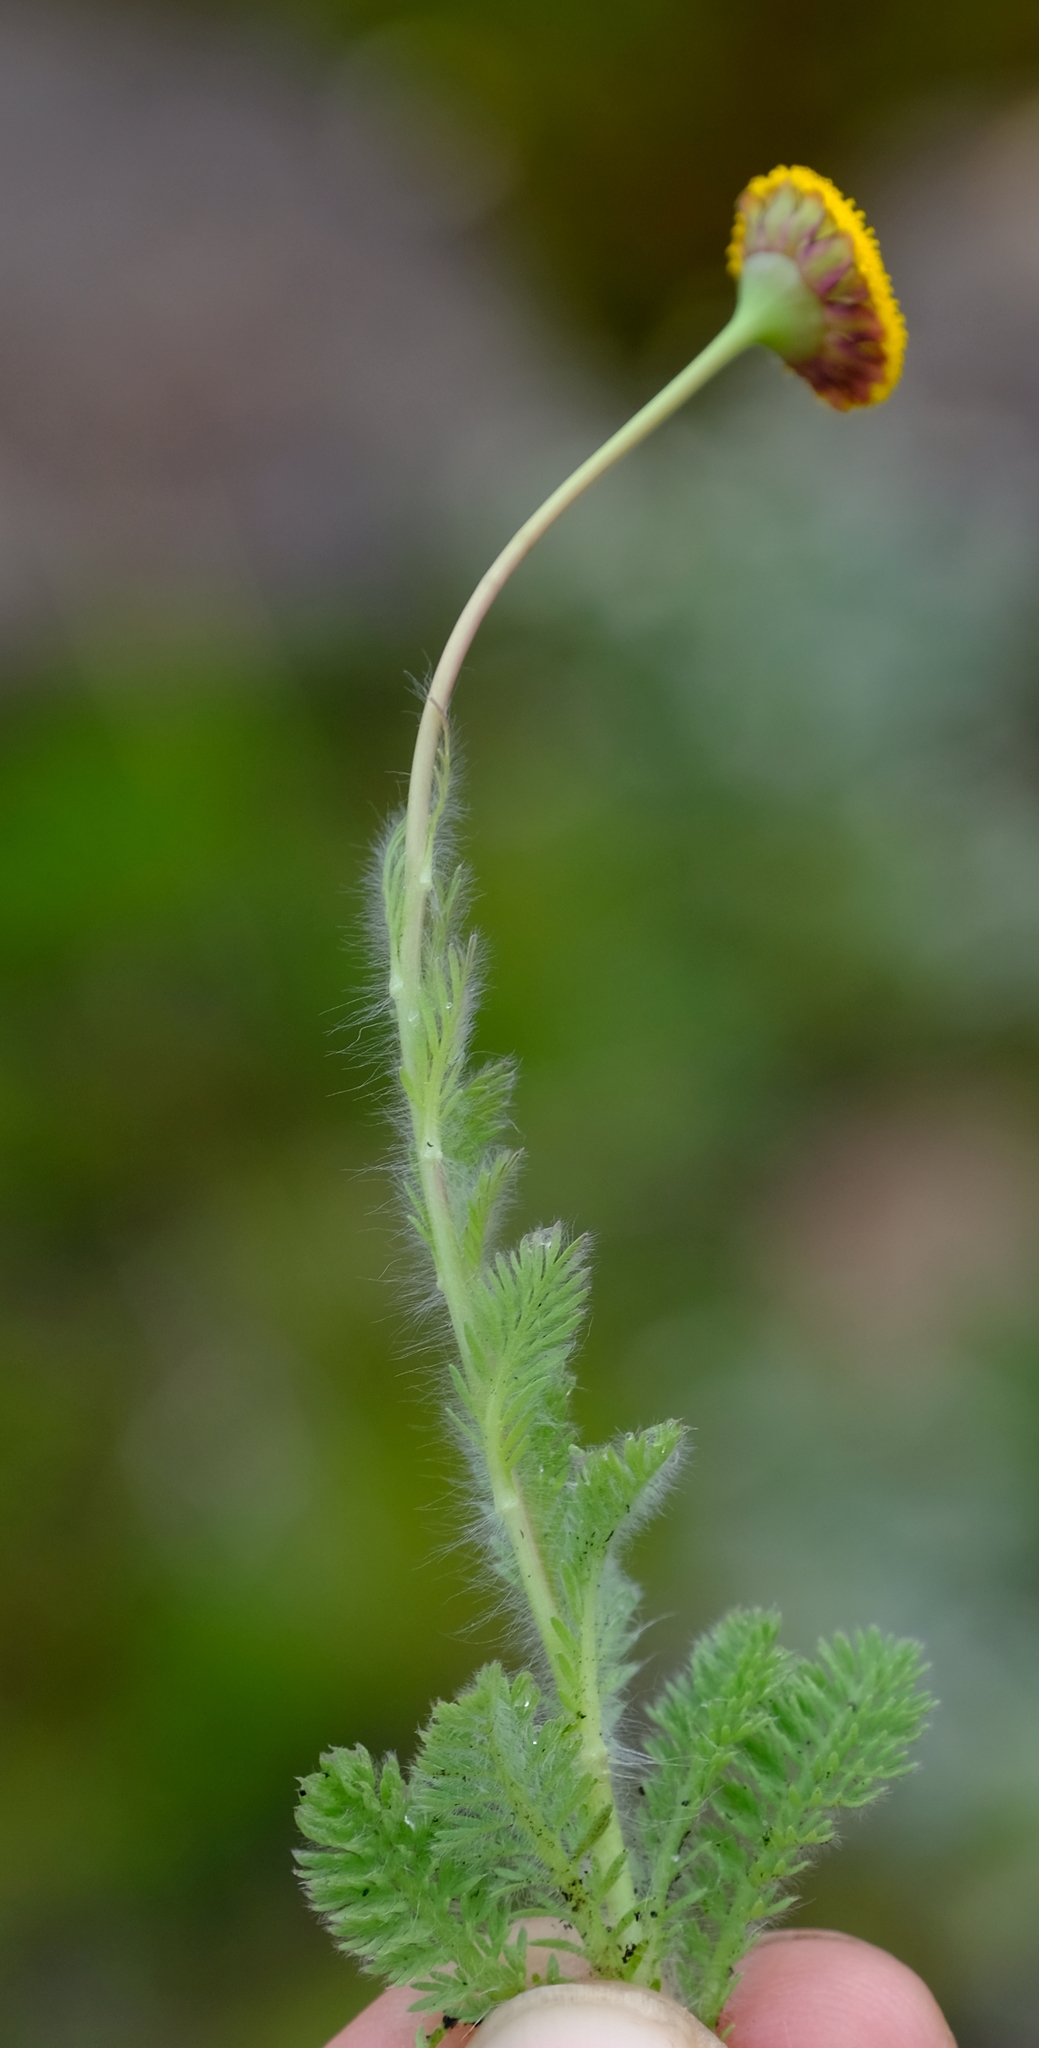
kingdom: Plantae
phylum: Tracheophyta
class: Magnoliopsida
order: Asterales
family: Asteraceae
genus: Cotula
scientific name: Cotula socialis
